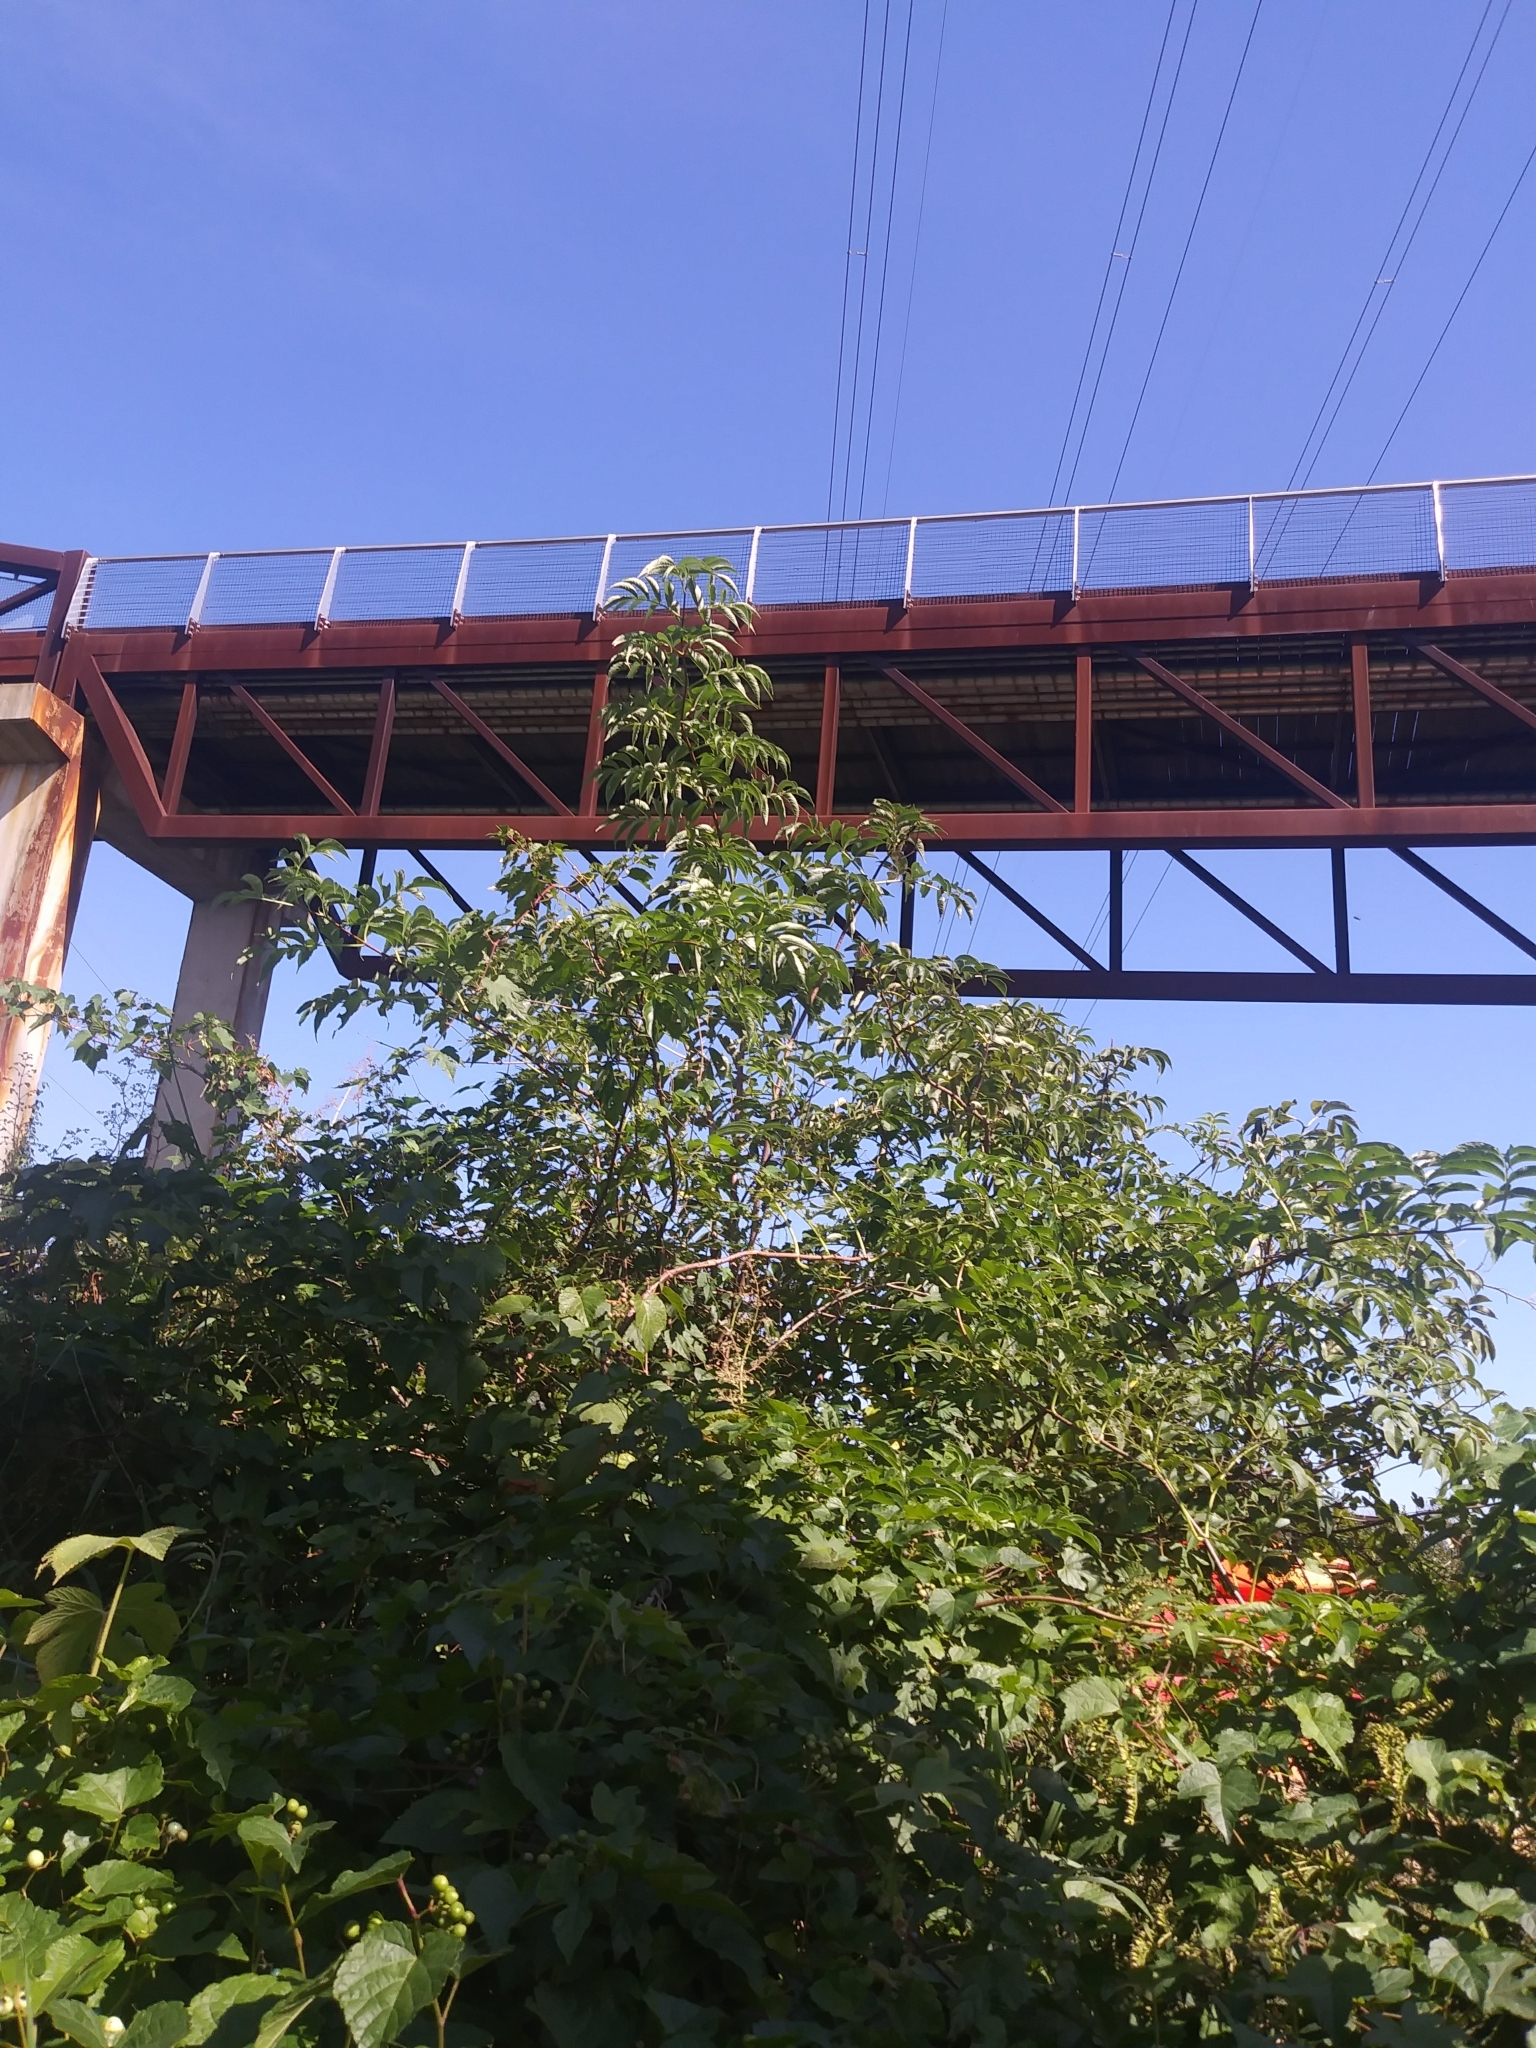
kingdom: Plantae
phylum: Tracheophyta
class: Magnoliopsida
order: Dipsacales
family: Viburnaceae
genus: Sambucus
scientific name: Sambucus canadensis
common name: American elder
